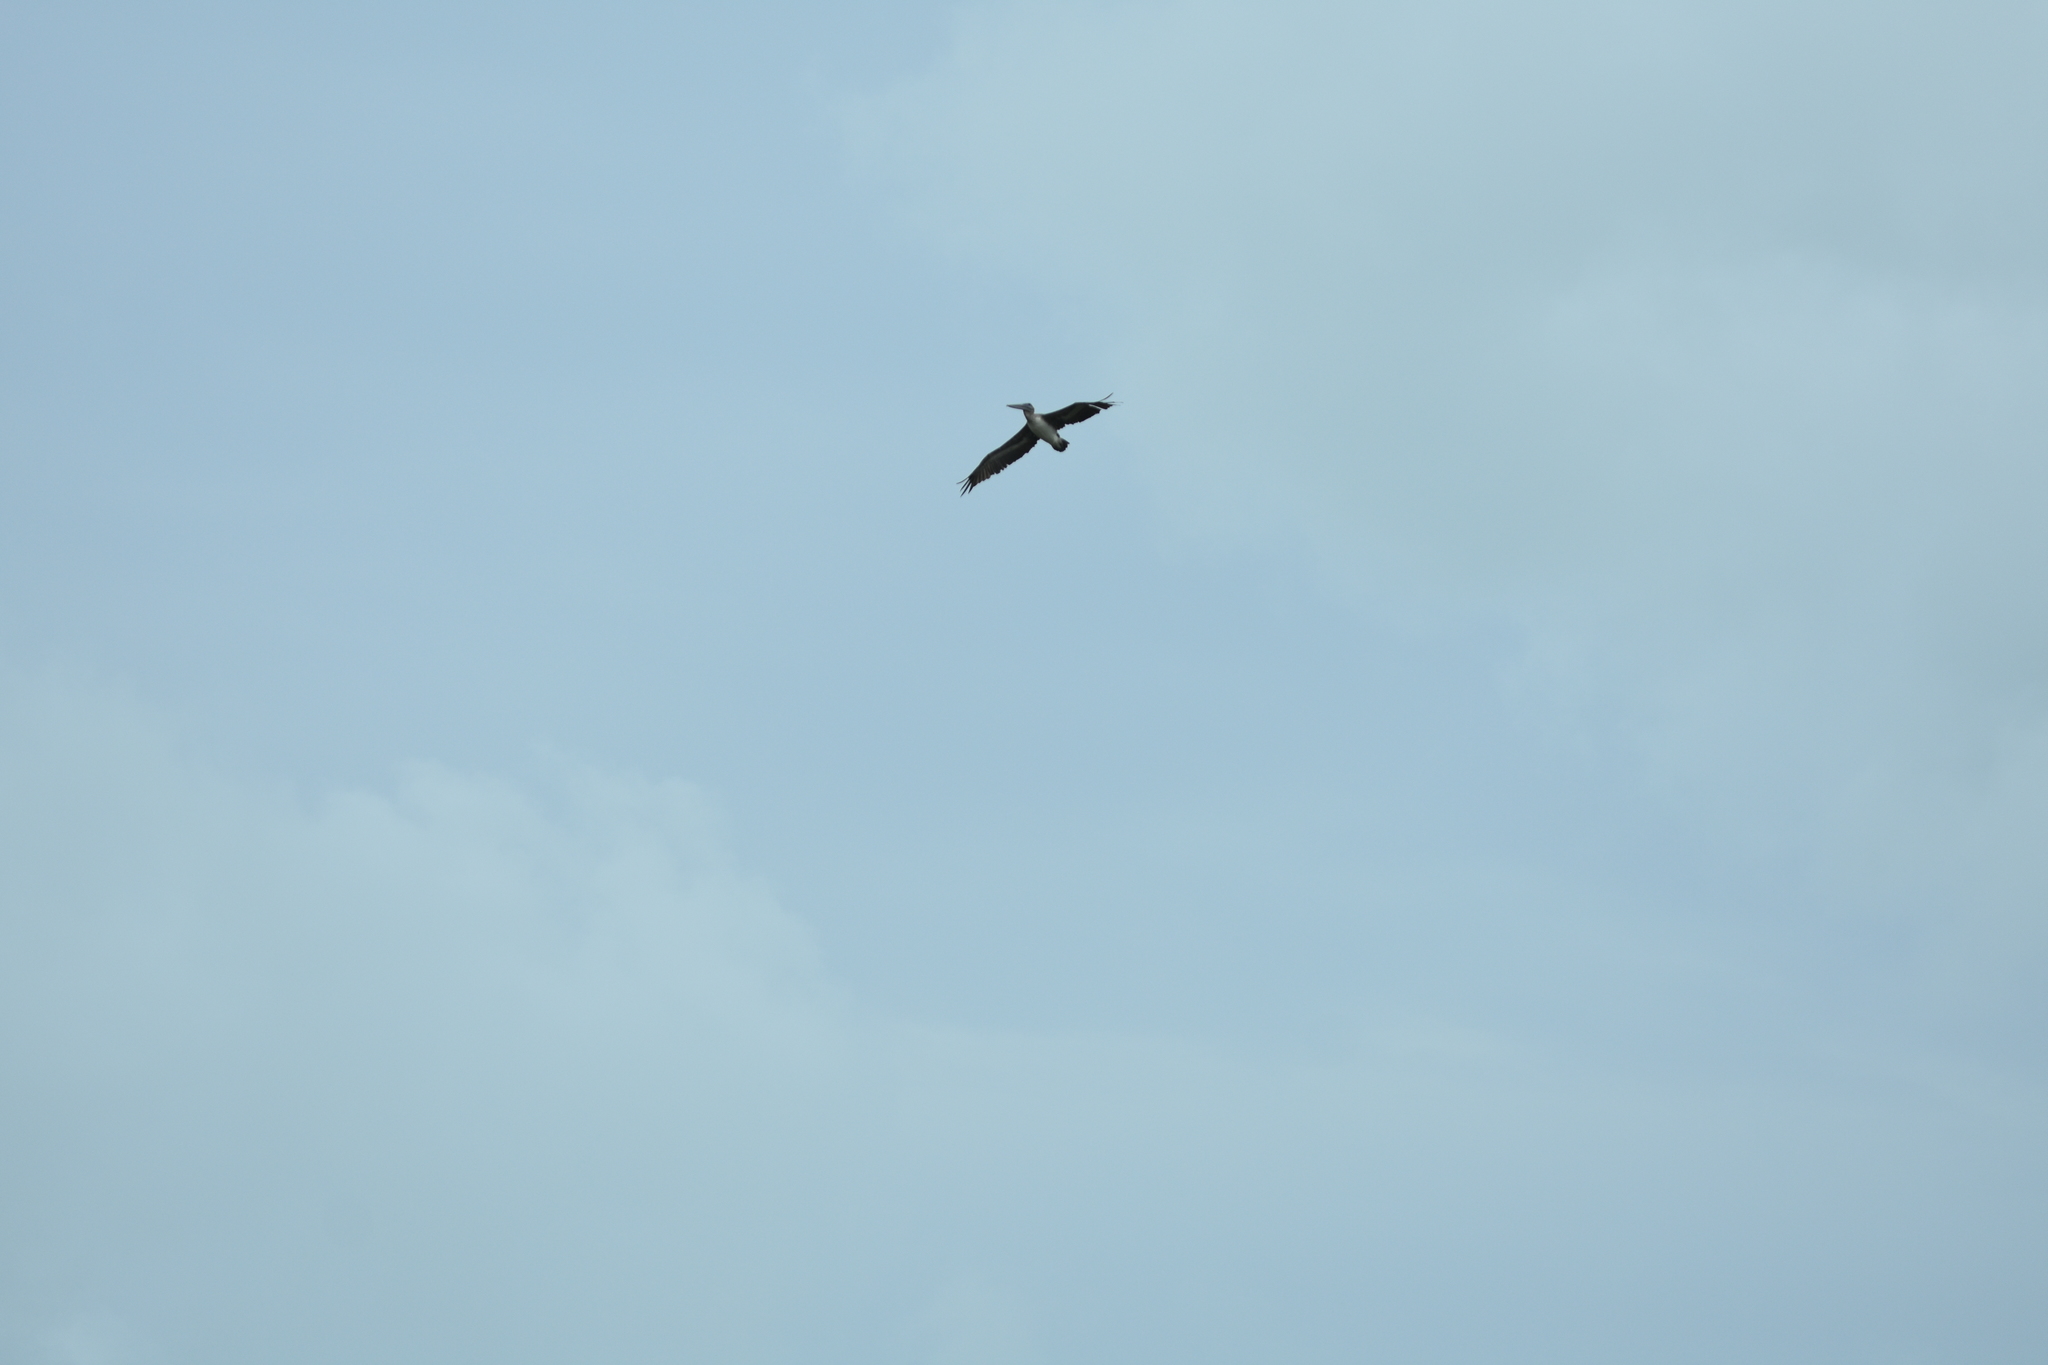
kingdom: Animalia
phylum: Chordata
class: Aves
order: Pelecaniformes
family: Pelecanidae
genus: Pelecanus
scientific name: Pelecanus occidentalis
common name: Brown pelican
